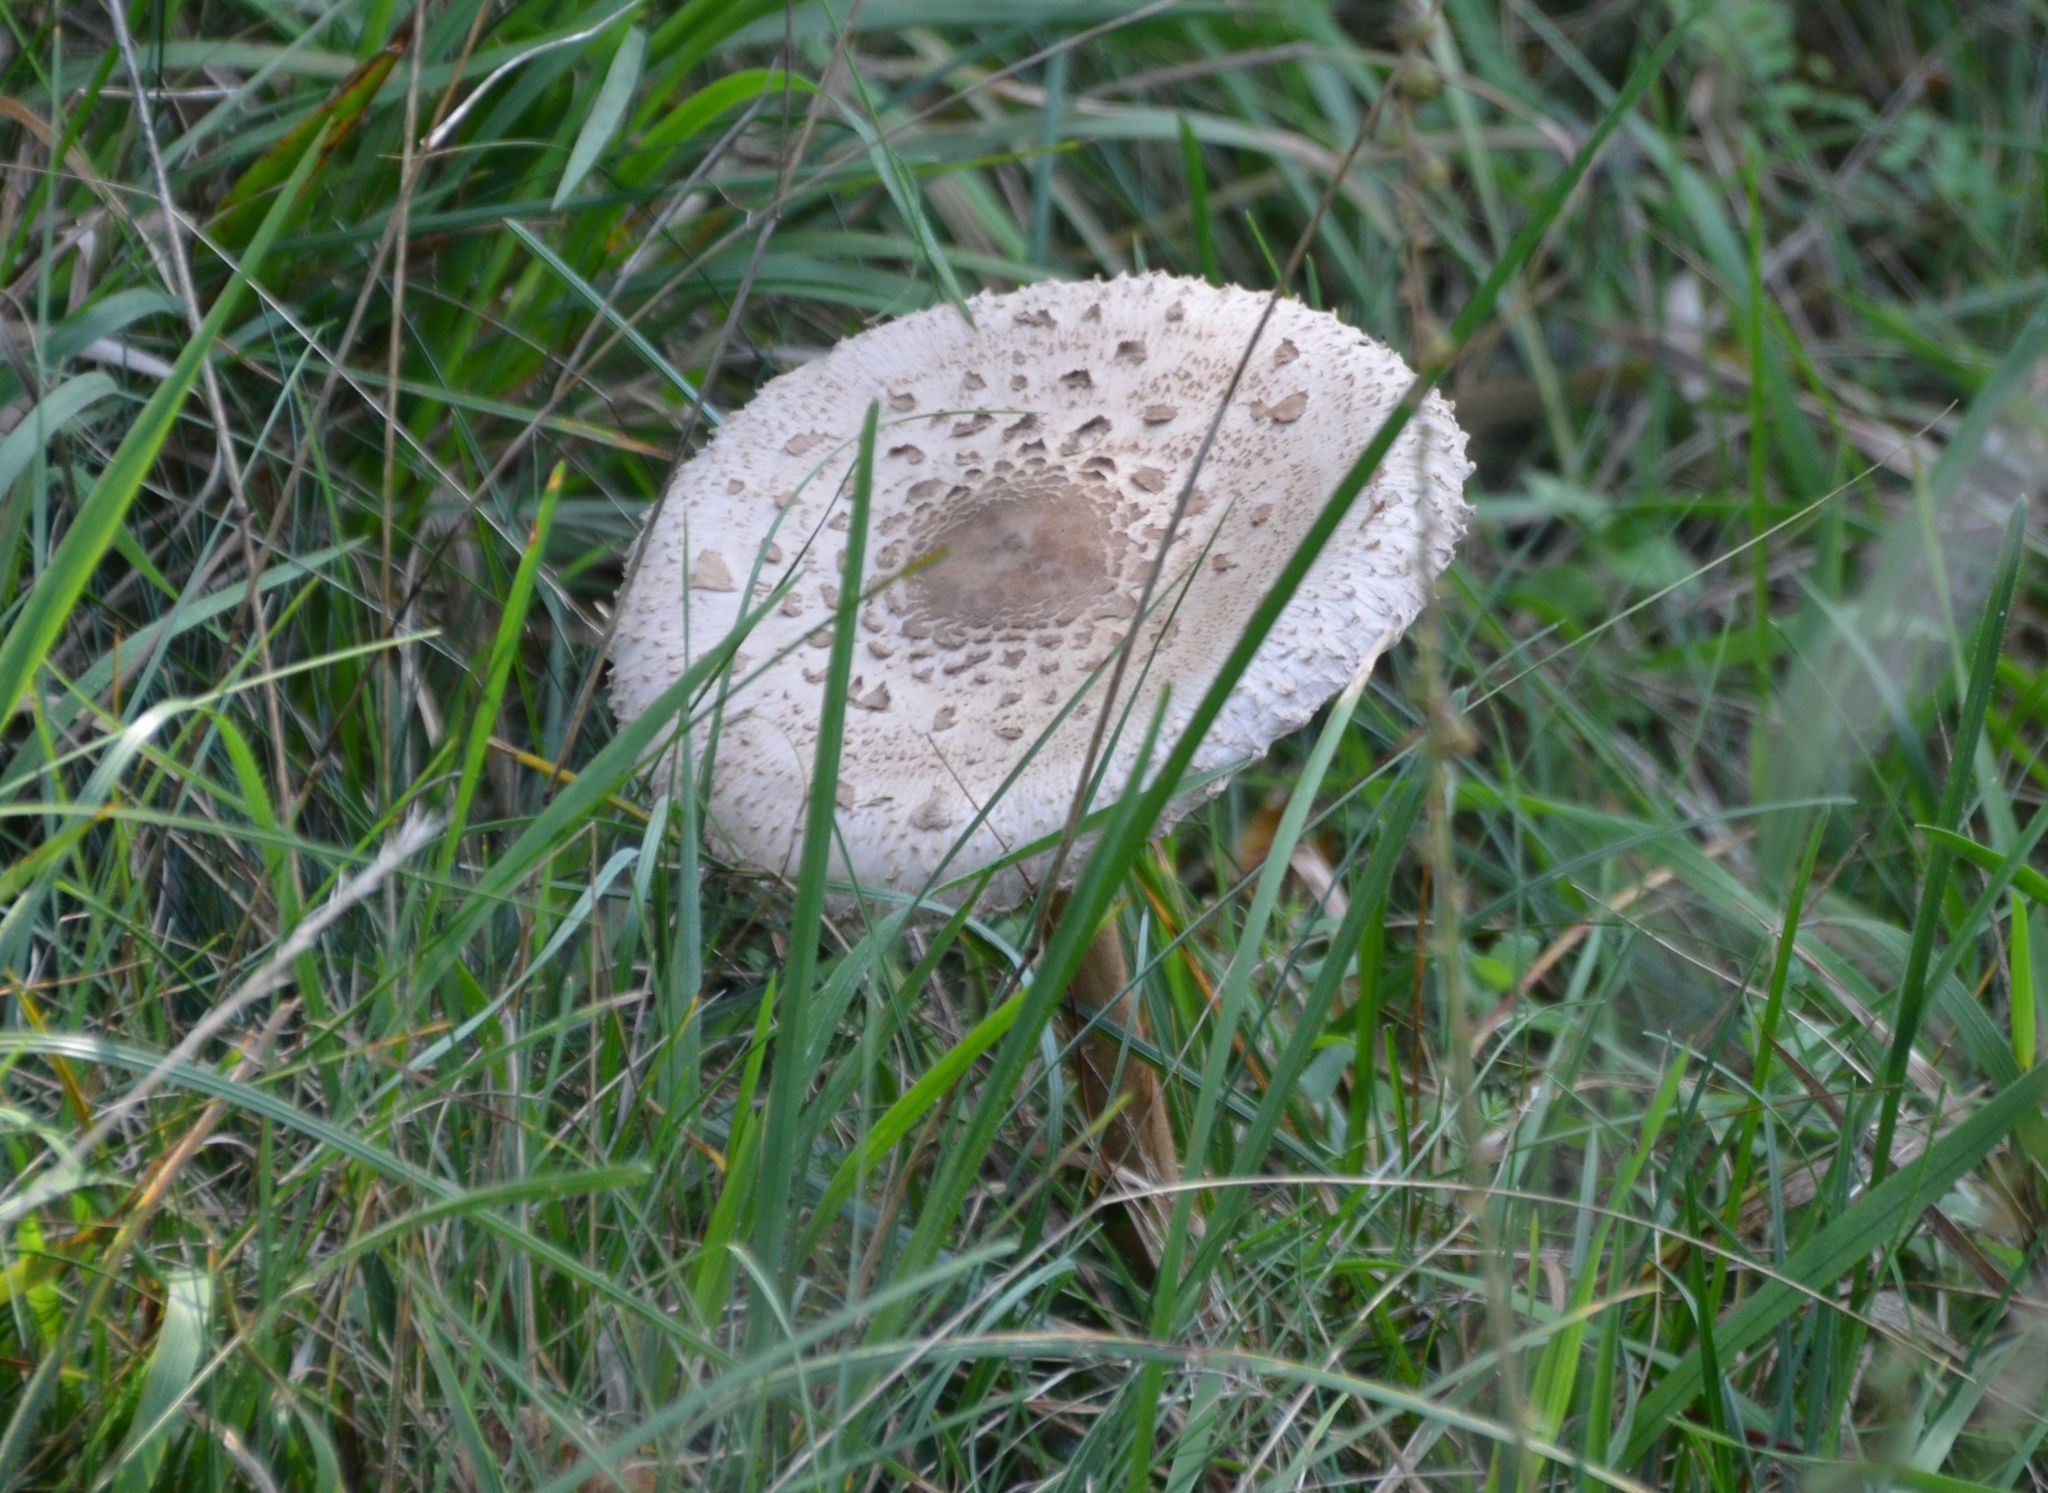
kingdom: Fungi
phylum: Basidiomycota
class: Agaricomycetes
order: Agaricales
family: Agaricaceae
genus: Macrolepiota
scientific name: Macrolepiota procera
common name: Parasol
